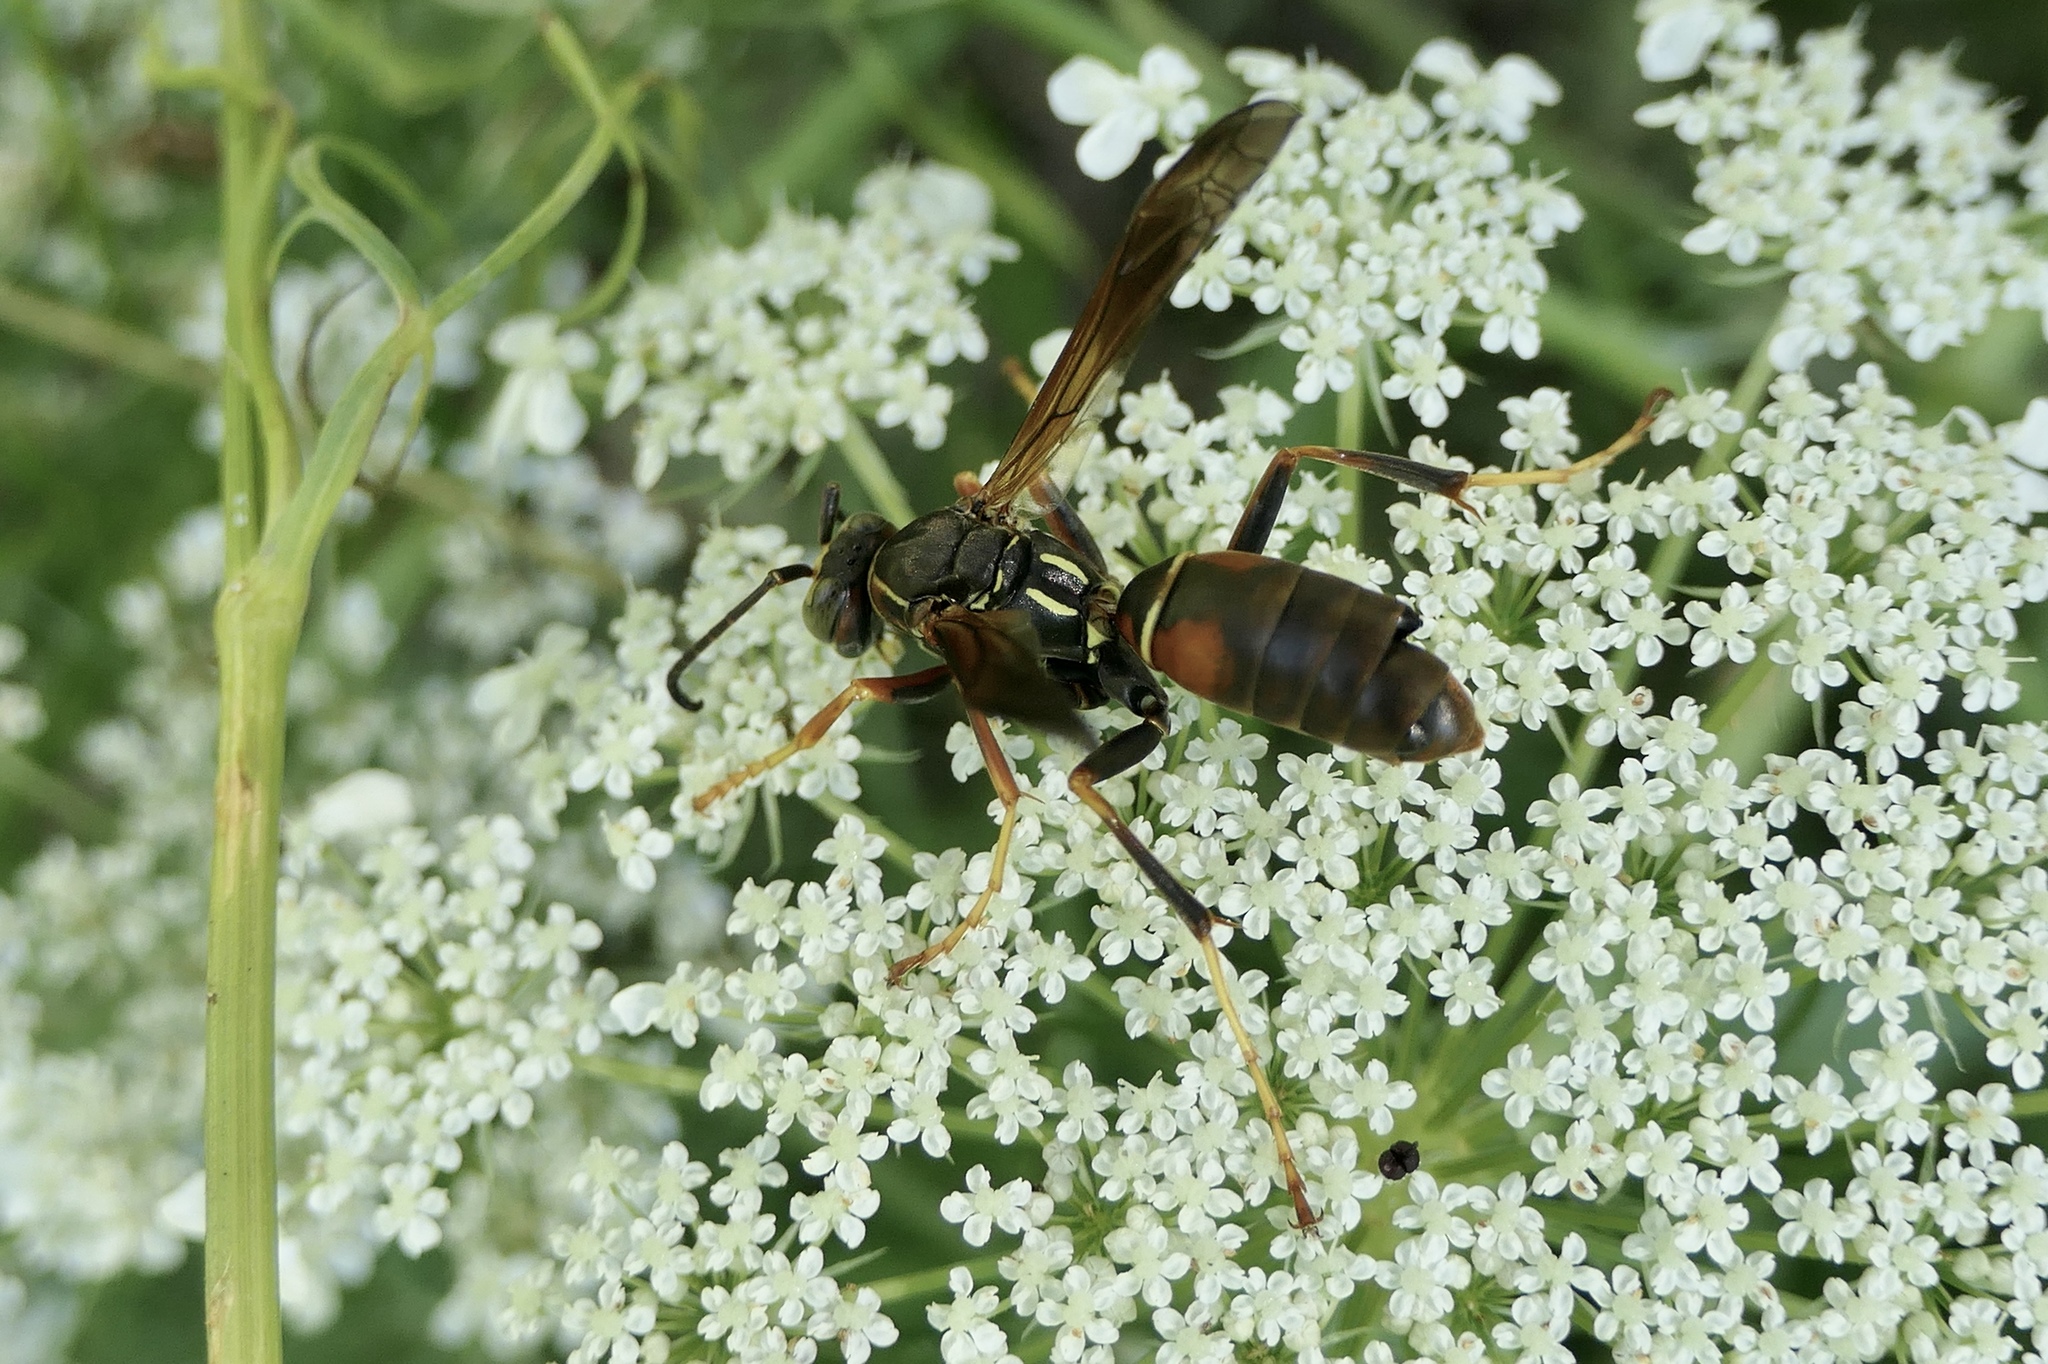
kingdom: Animalia
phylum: Arthropoda
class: Insecta
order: Hymenoptera
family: Eumenidae
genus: Polistes
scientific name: Polistes fuscatus
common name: Dark paper wasp
